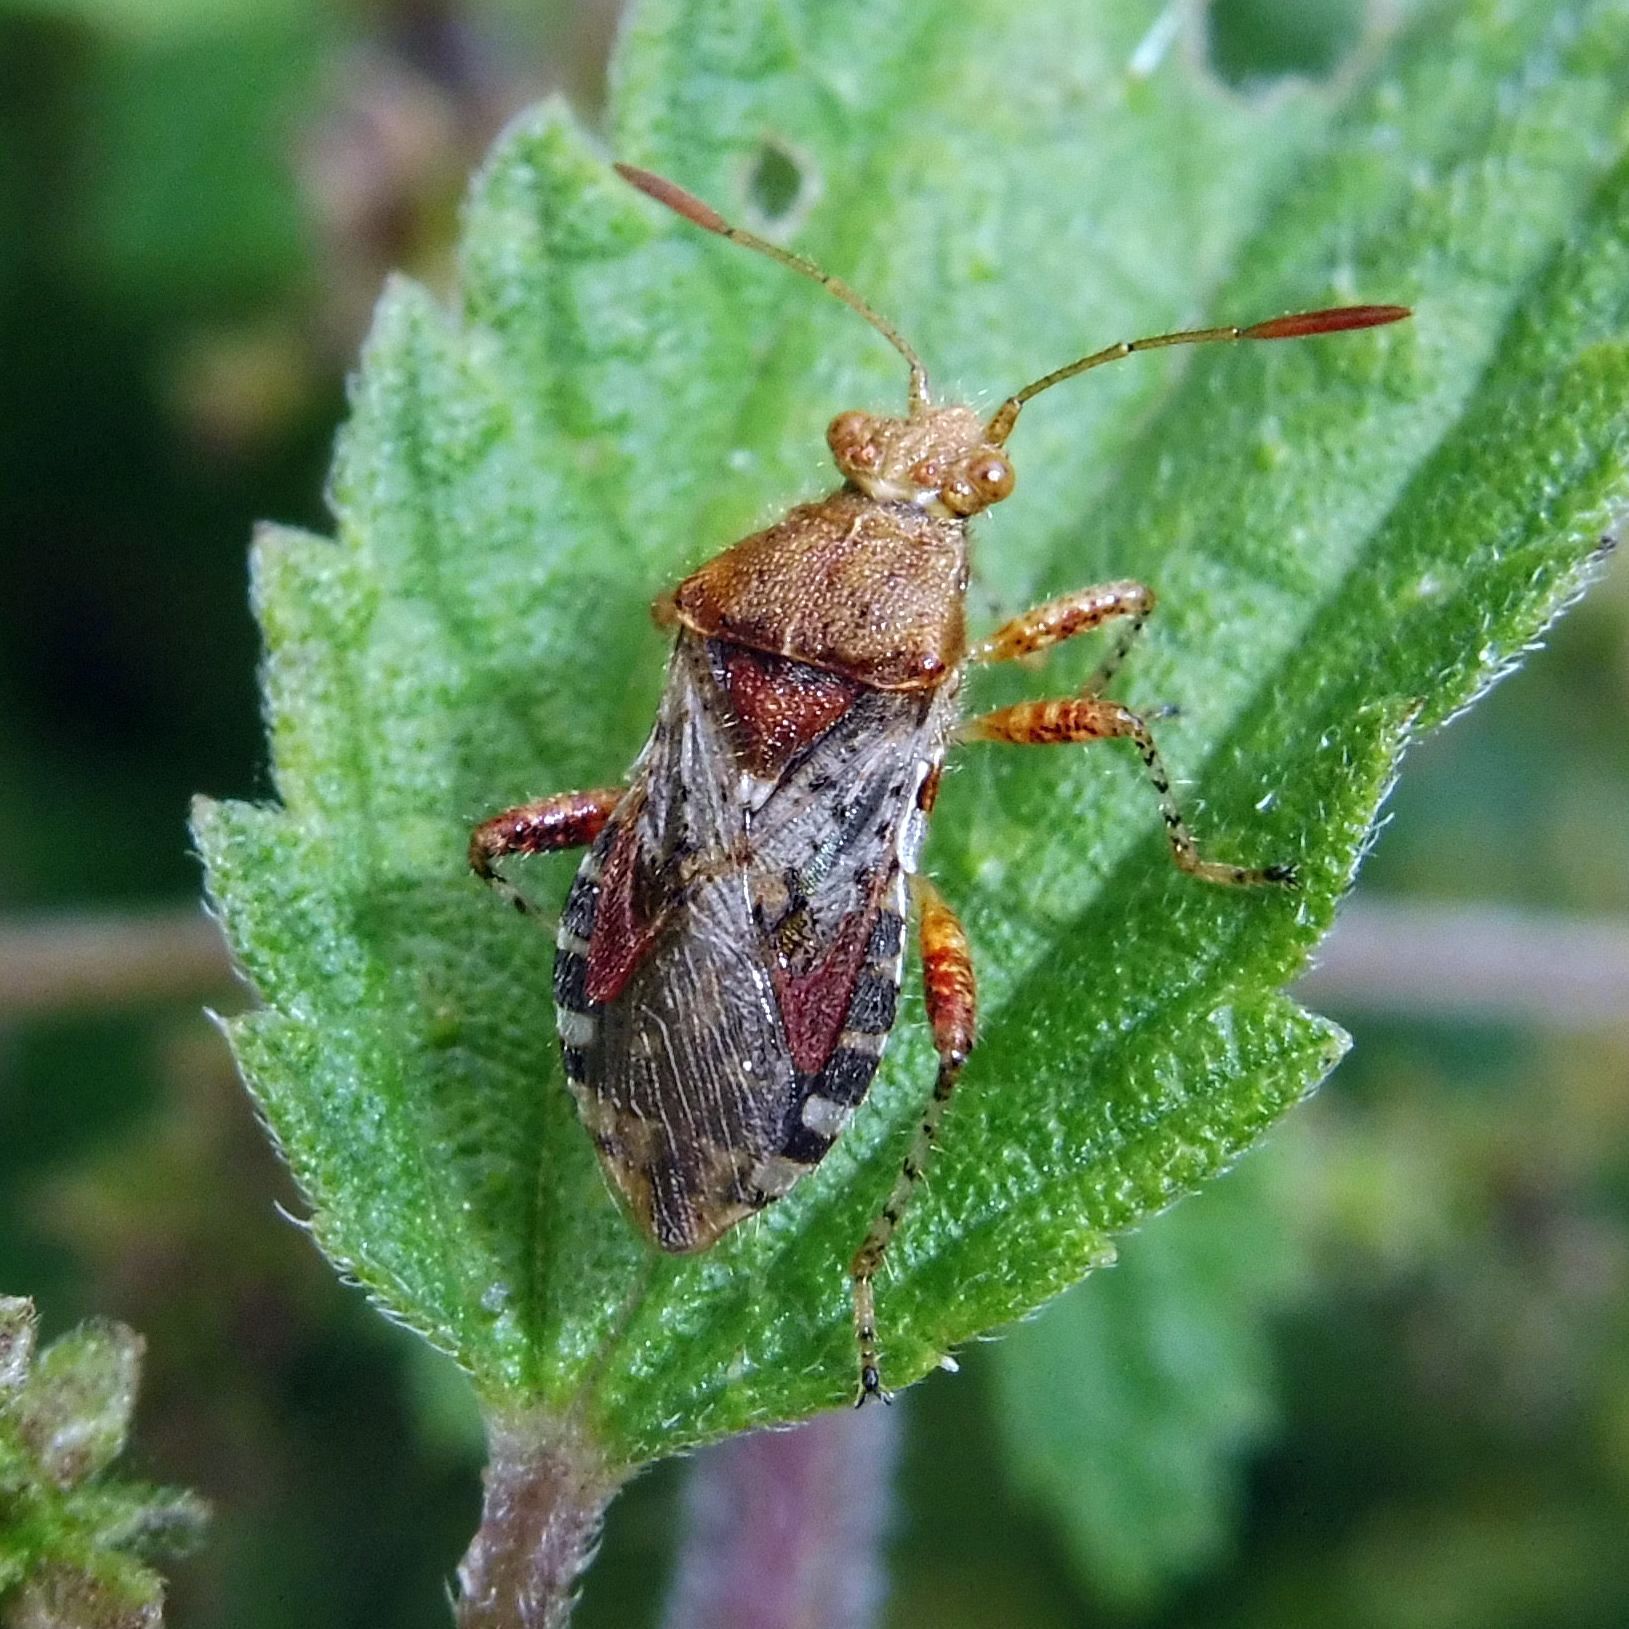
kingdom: Animalia
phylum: Arthropoda
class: Insecta
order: Hemiptera
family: Rhopalidae
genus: Rhopalus
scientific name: Rhopalus subrufus
